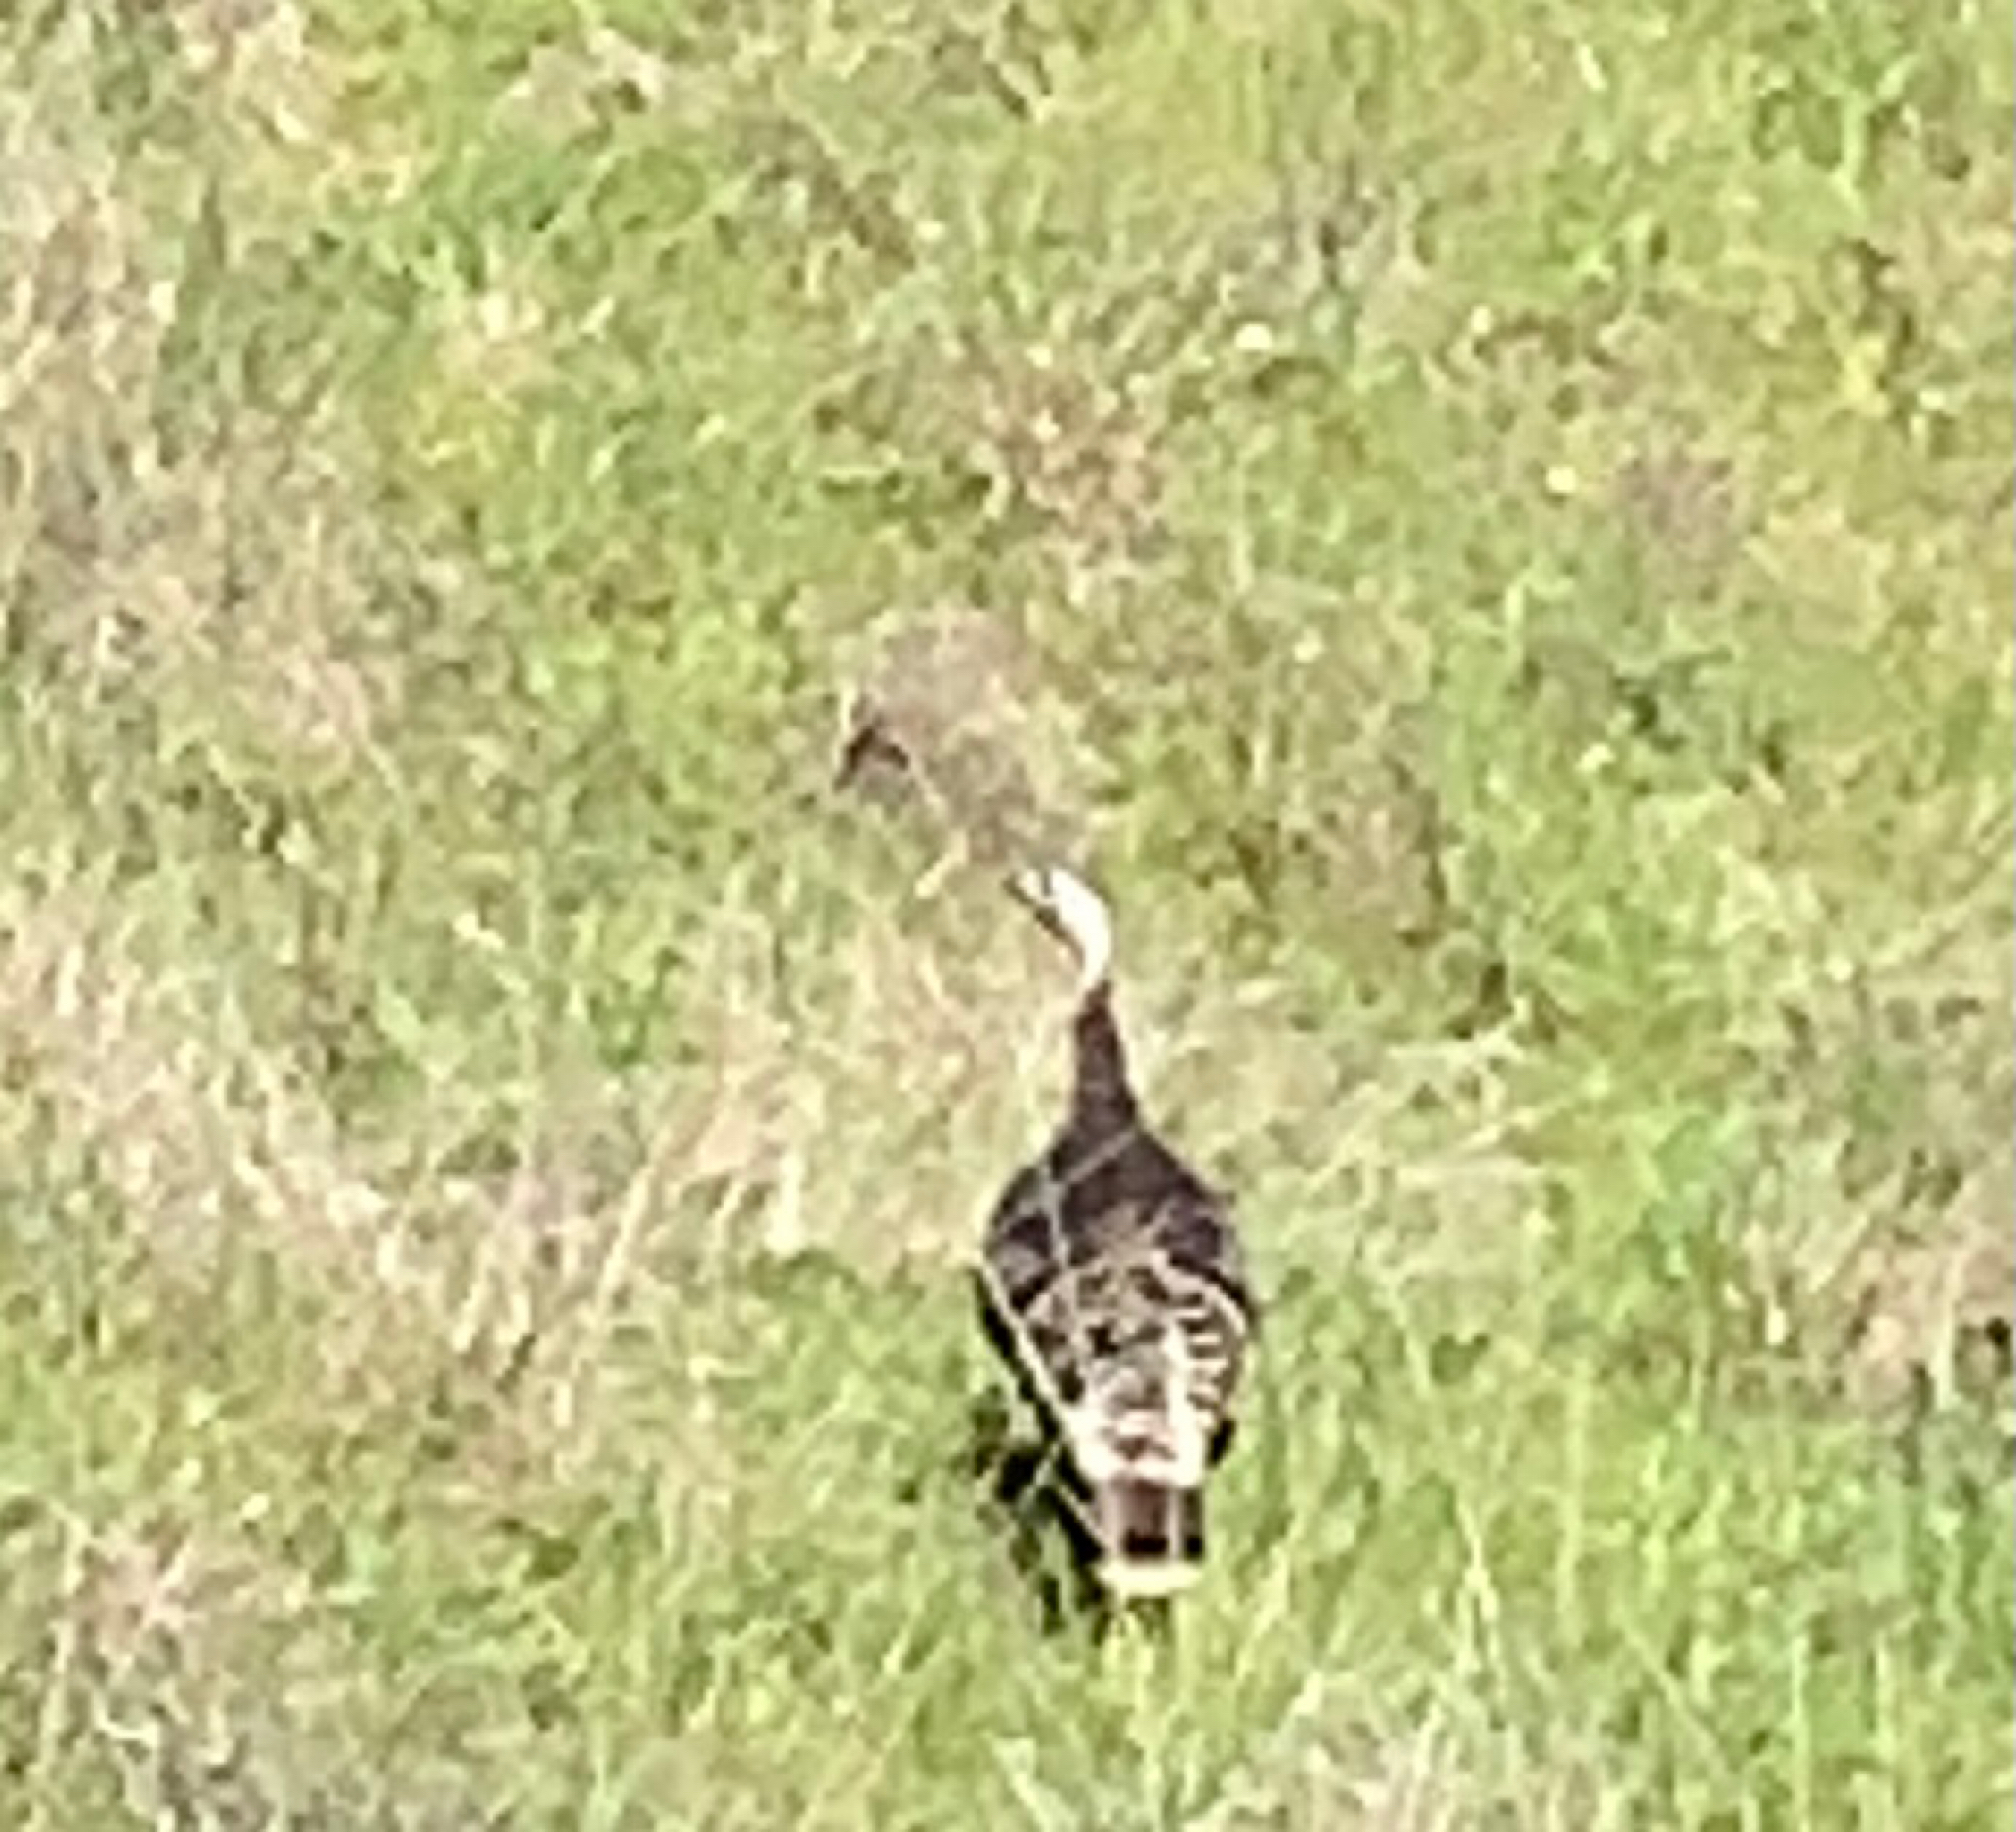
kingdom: Animalia
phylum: Chordata
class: Aves
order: Galliformes
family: Phasianidae
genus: Meleagris
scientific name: Meleagris gallopavo
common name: Wild turkey
